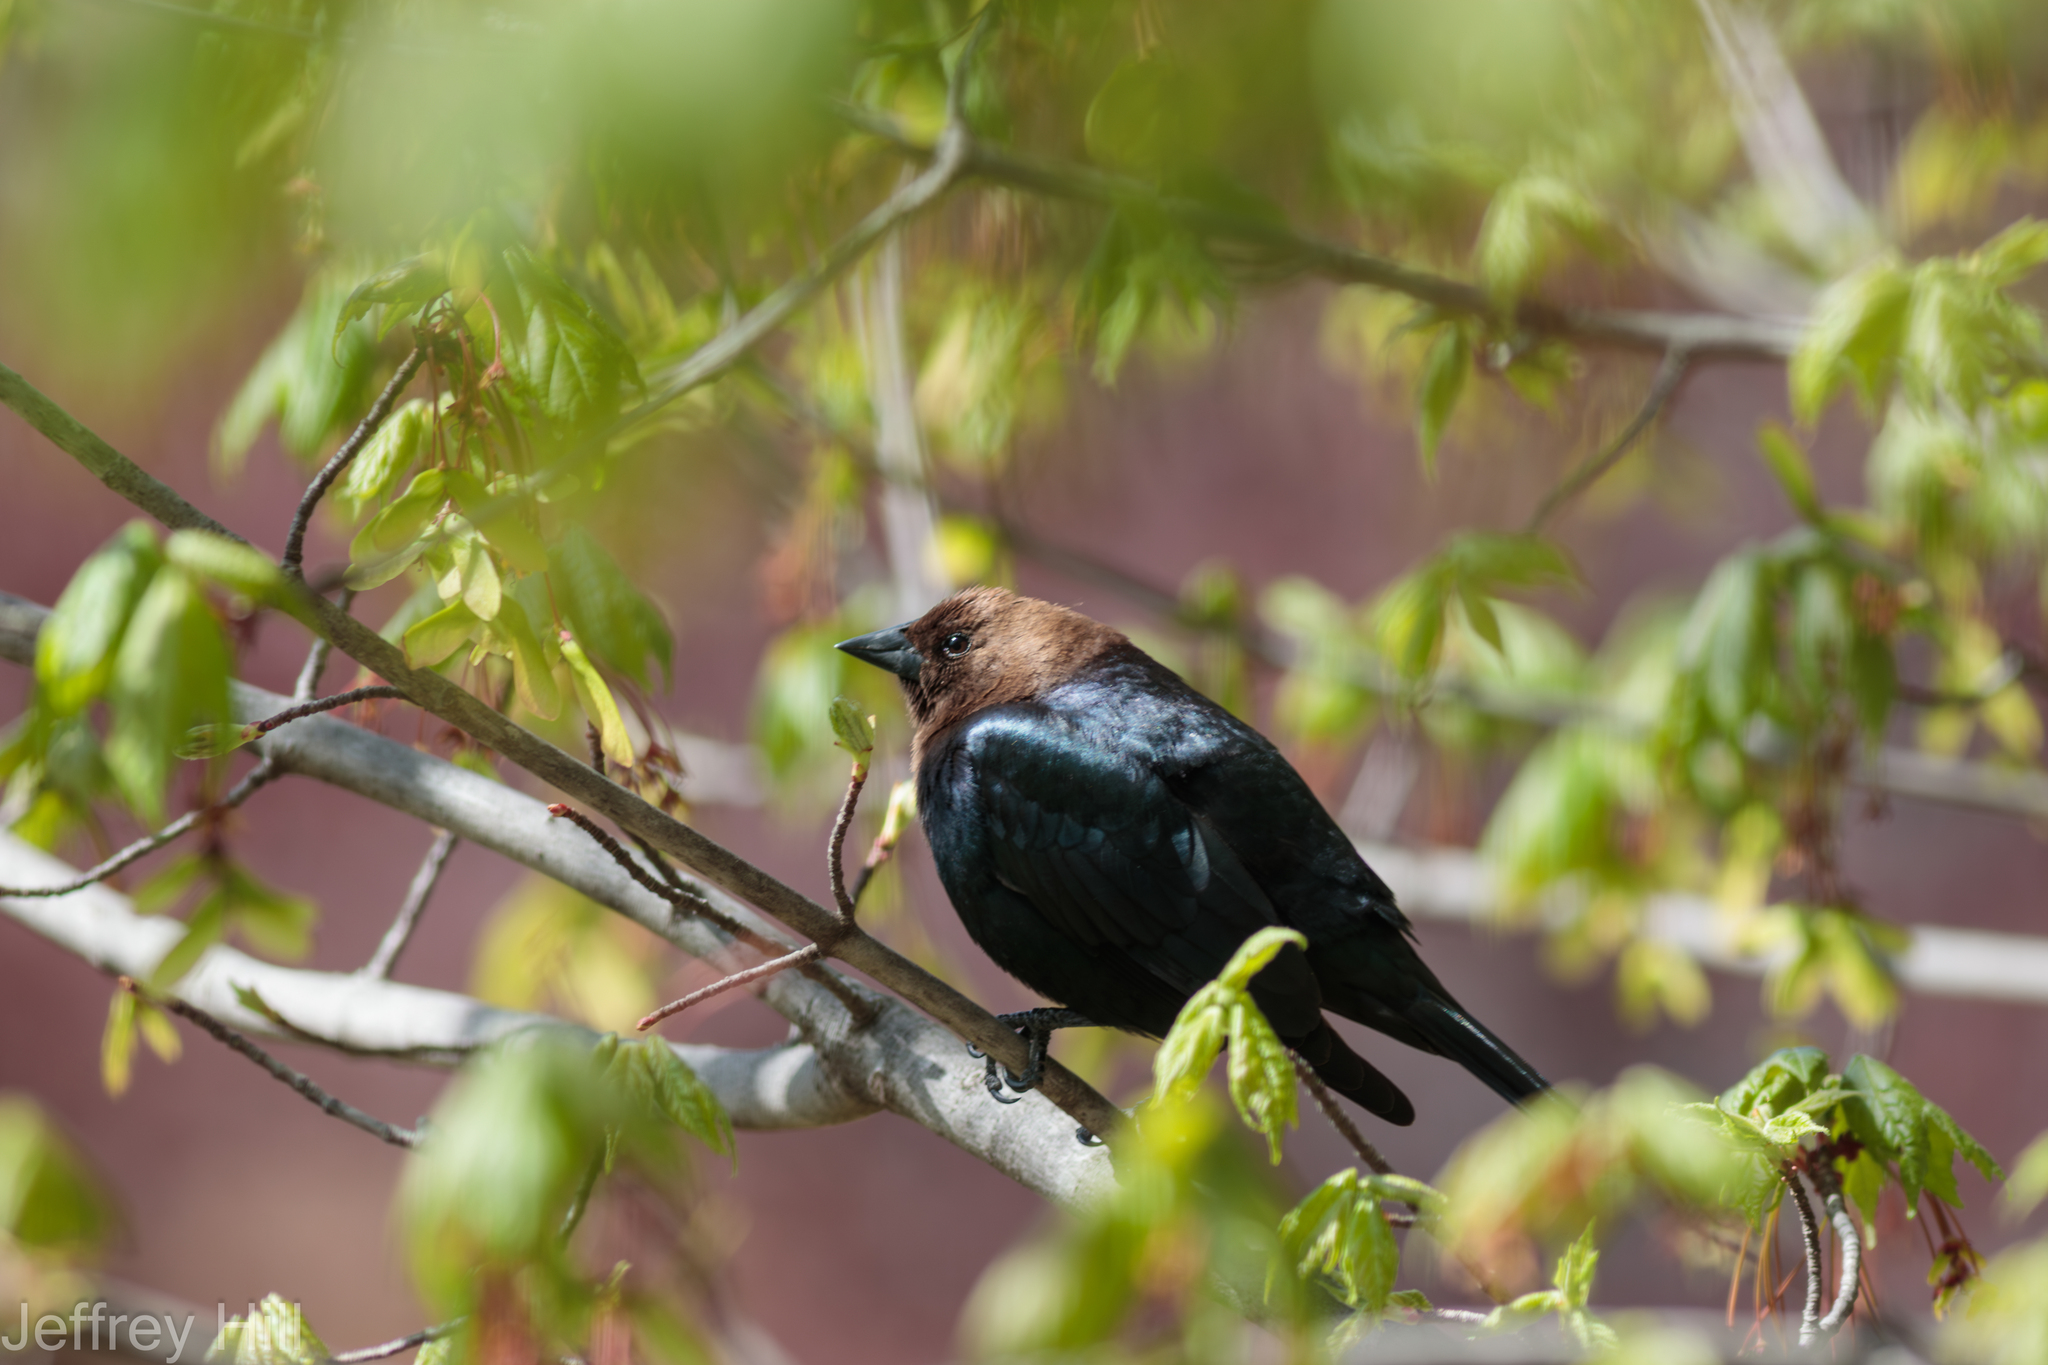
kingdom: Animalia
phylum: Chordata
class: Aves
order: Passeriformes
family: Icteridae
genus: Molothrus
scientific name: Molothrus ater
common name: Brown-headed cowbird
